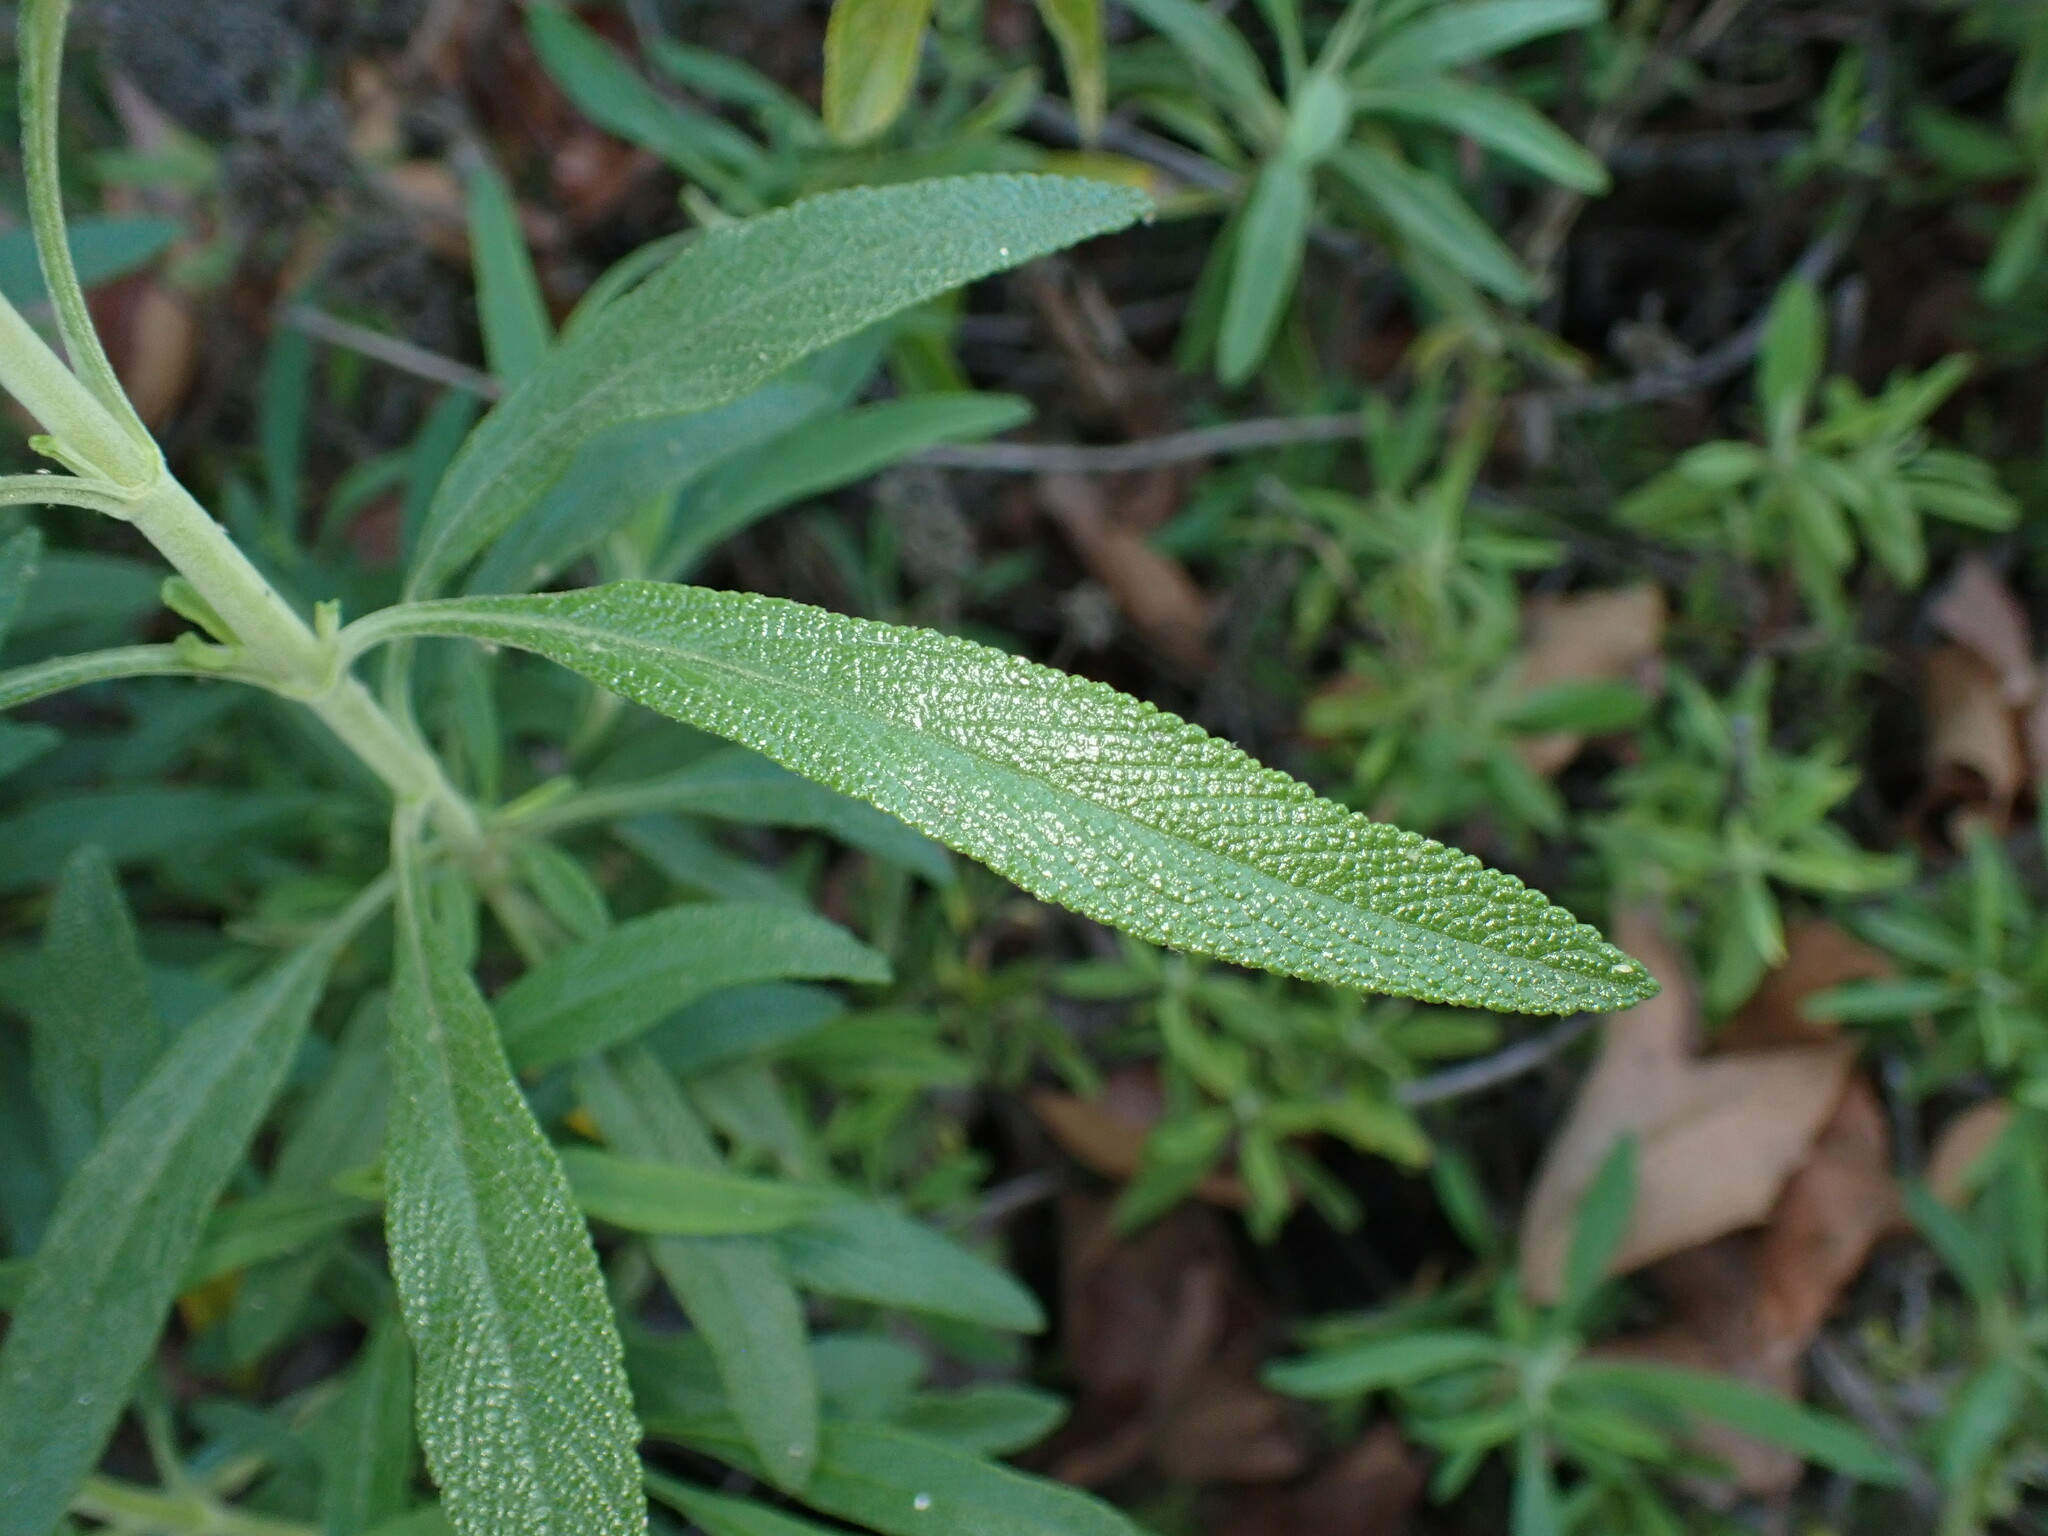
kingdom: Plantae
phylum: Tracheophyta
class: Magnoliopsida
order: Lamiales
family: Lamiaceae
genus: Salvia
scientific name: Salvia mellifera
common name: Black sage
